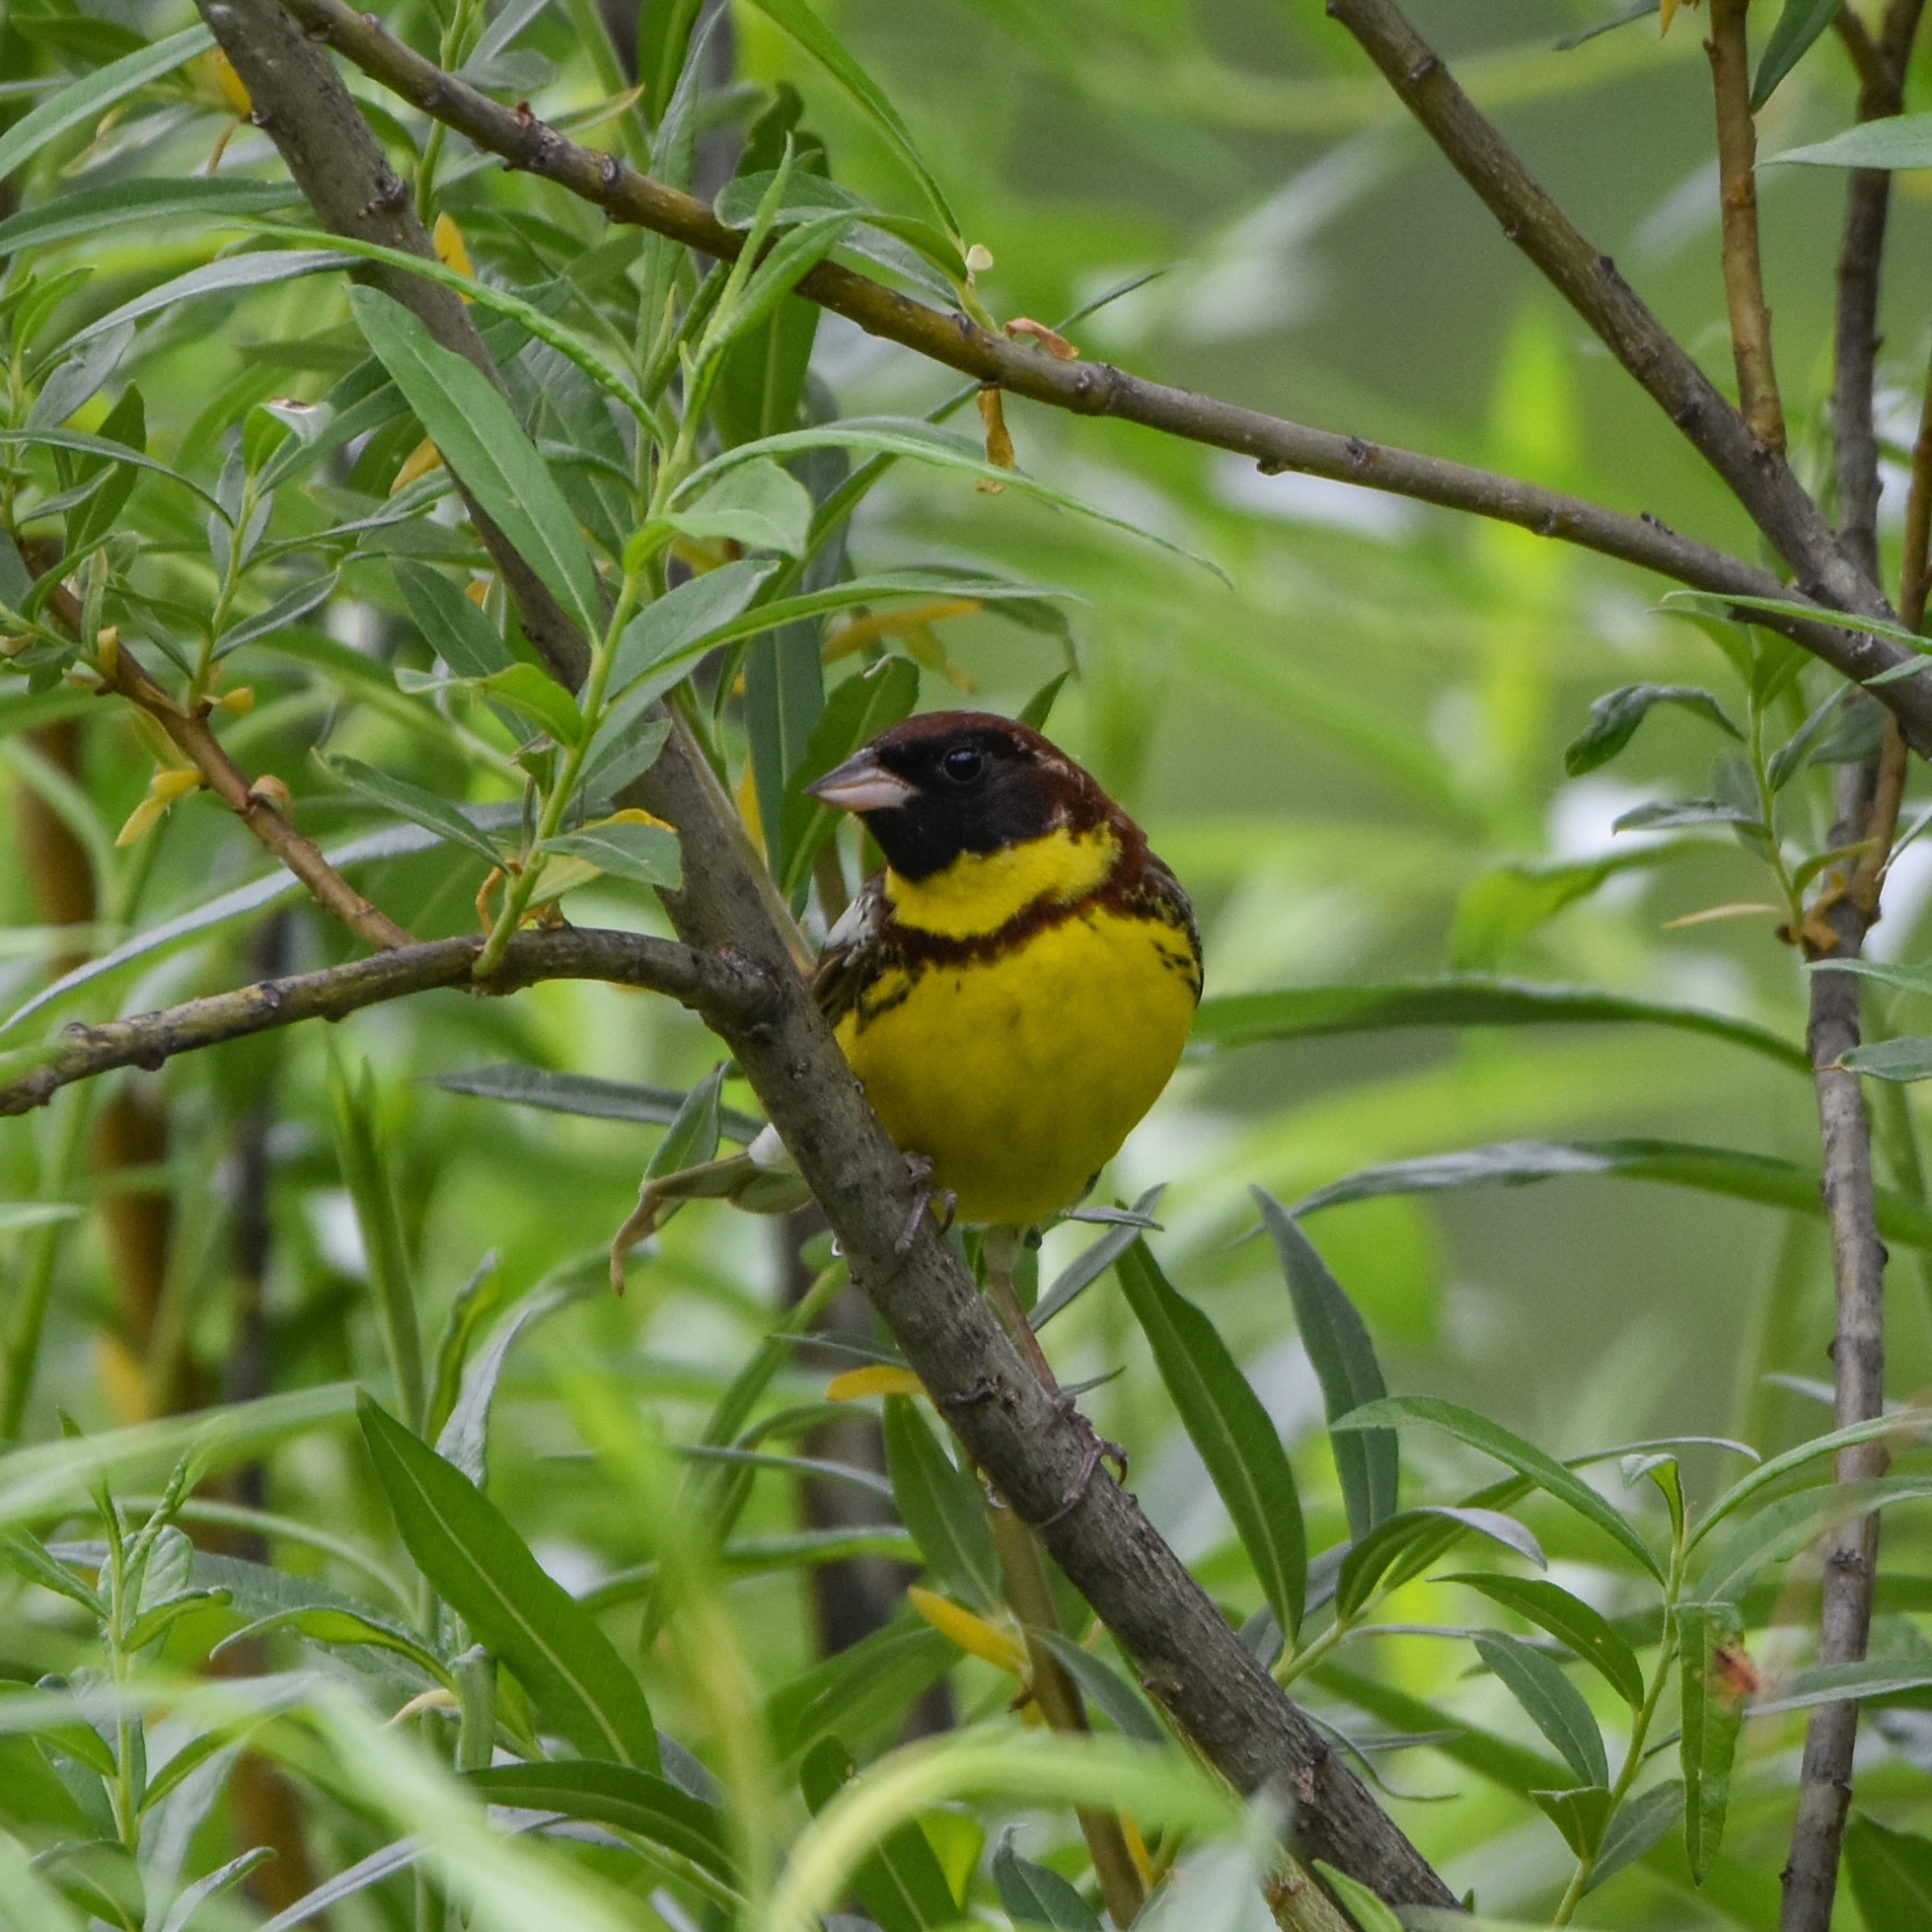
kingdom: Animalia
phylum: Chordata
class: Aves
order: Passeriformes
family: Emberizidae
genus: Emberiza
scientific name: Emberiza aureola
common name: Yellow-breasted bunting
